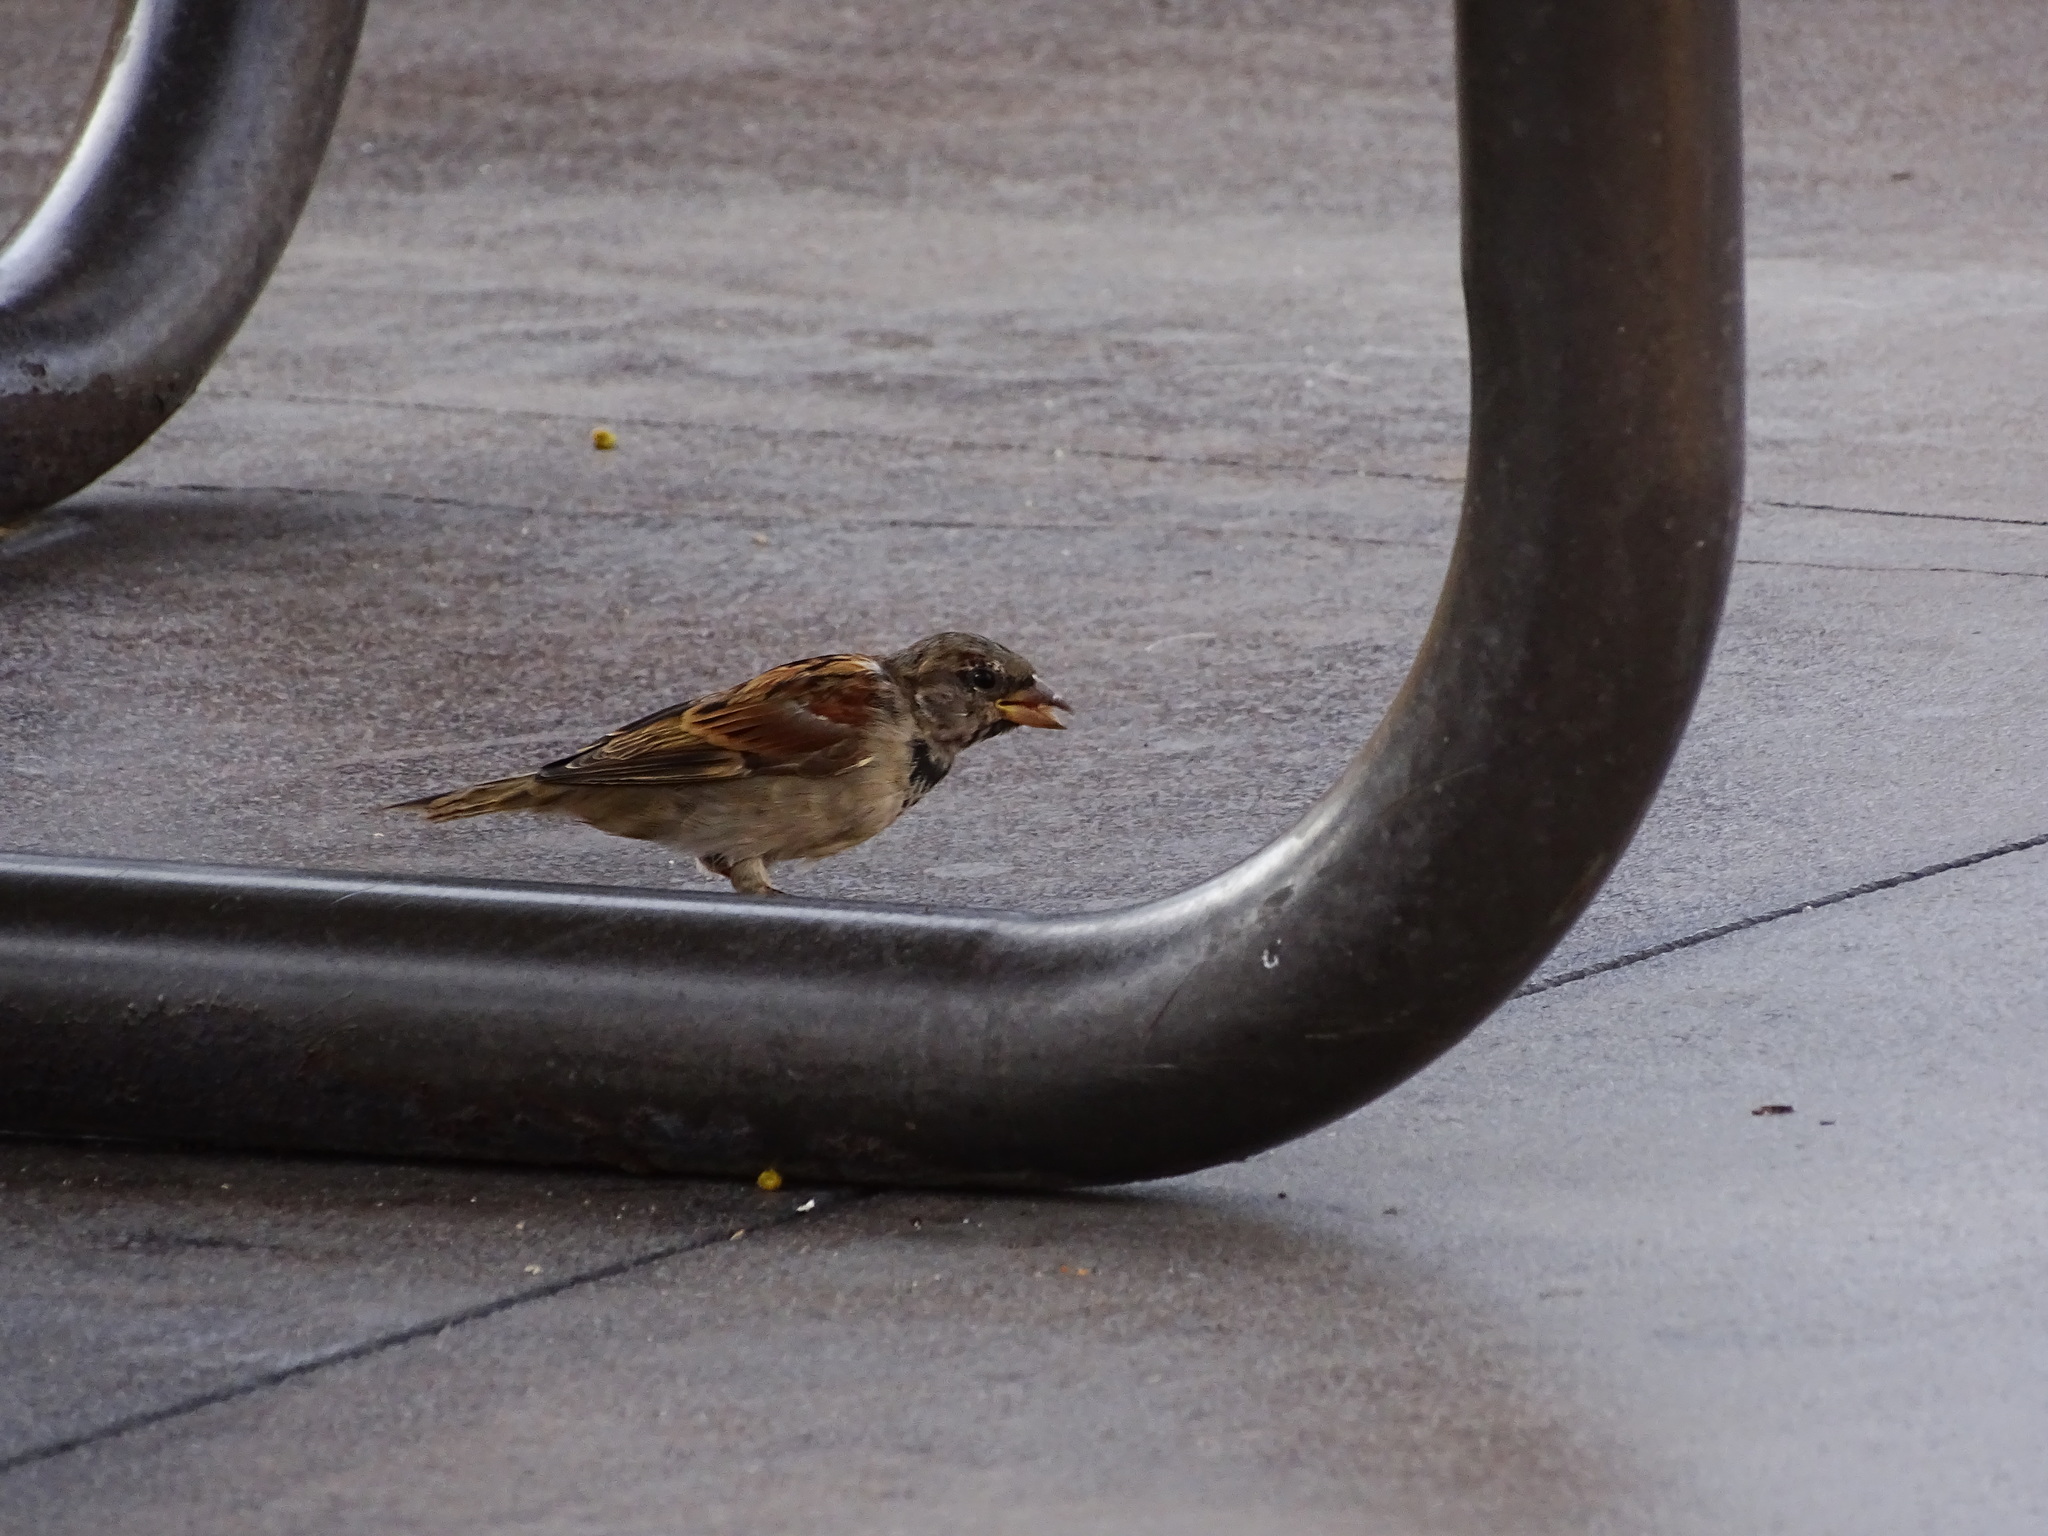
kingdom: Animalia
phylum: Chordata
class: Aves
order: Passeriformes
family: Passeridae
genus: Passer
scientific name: Passer domesticus
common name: House sparrow
